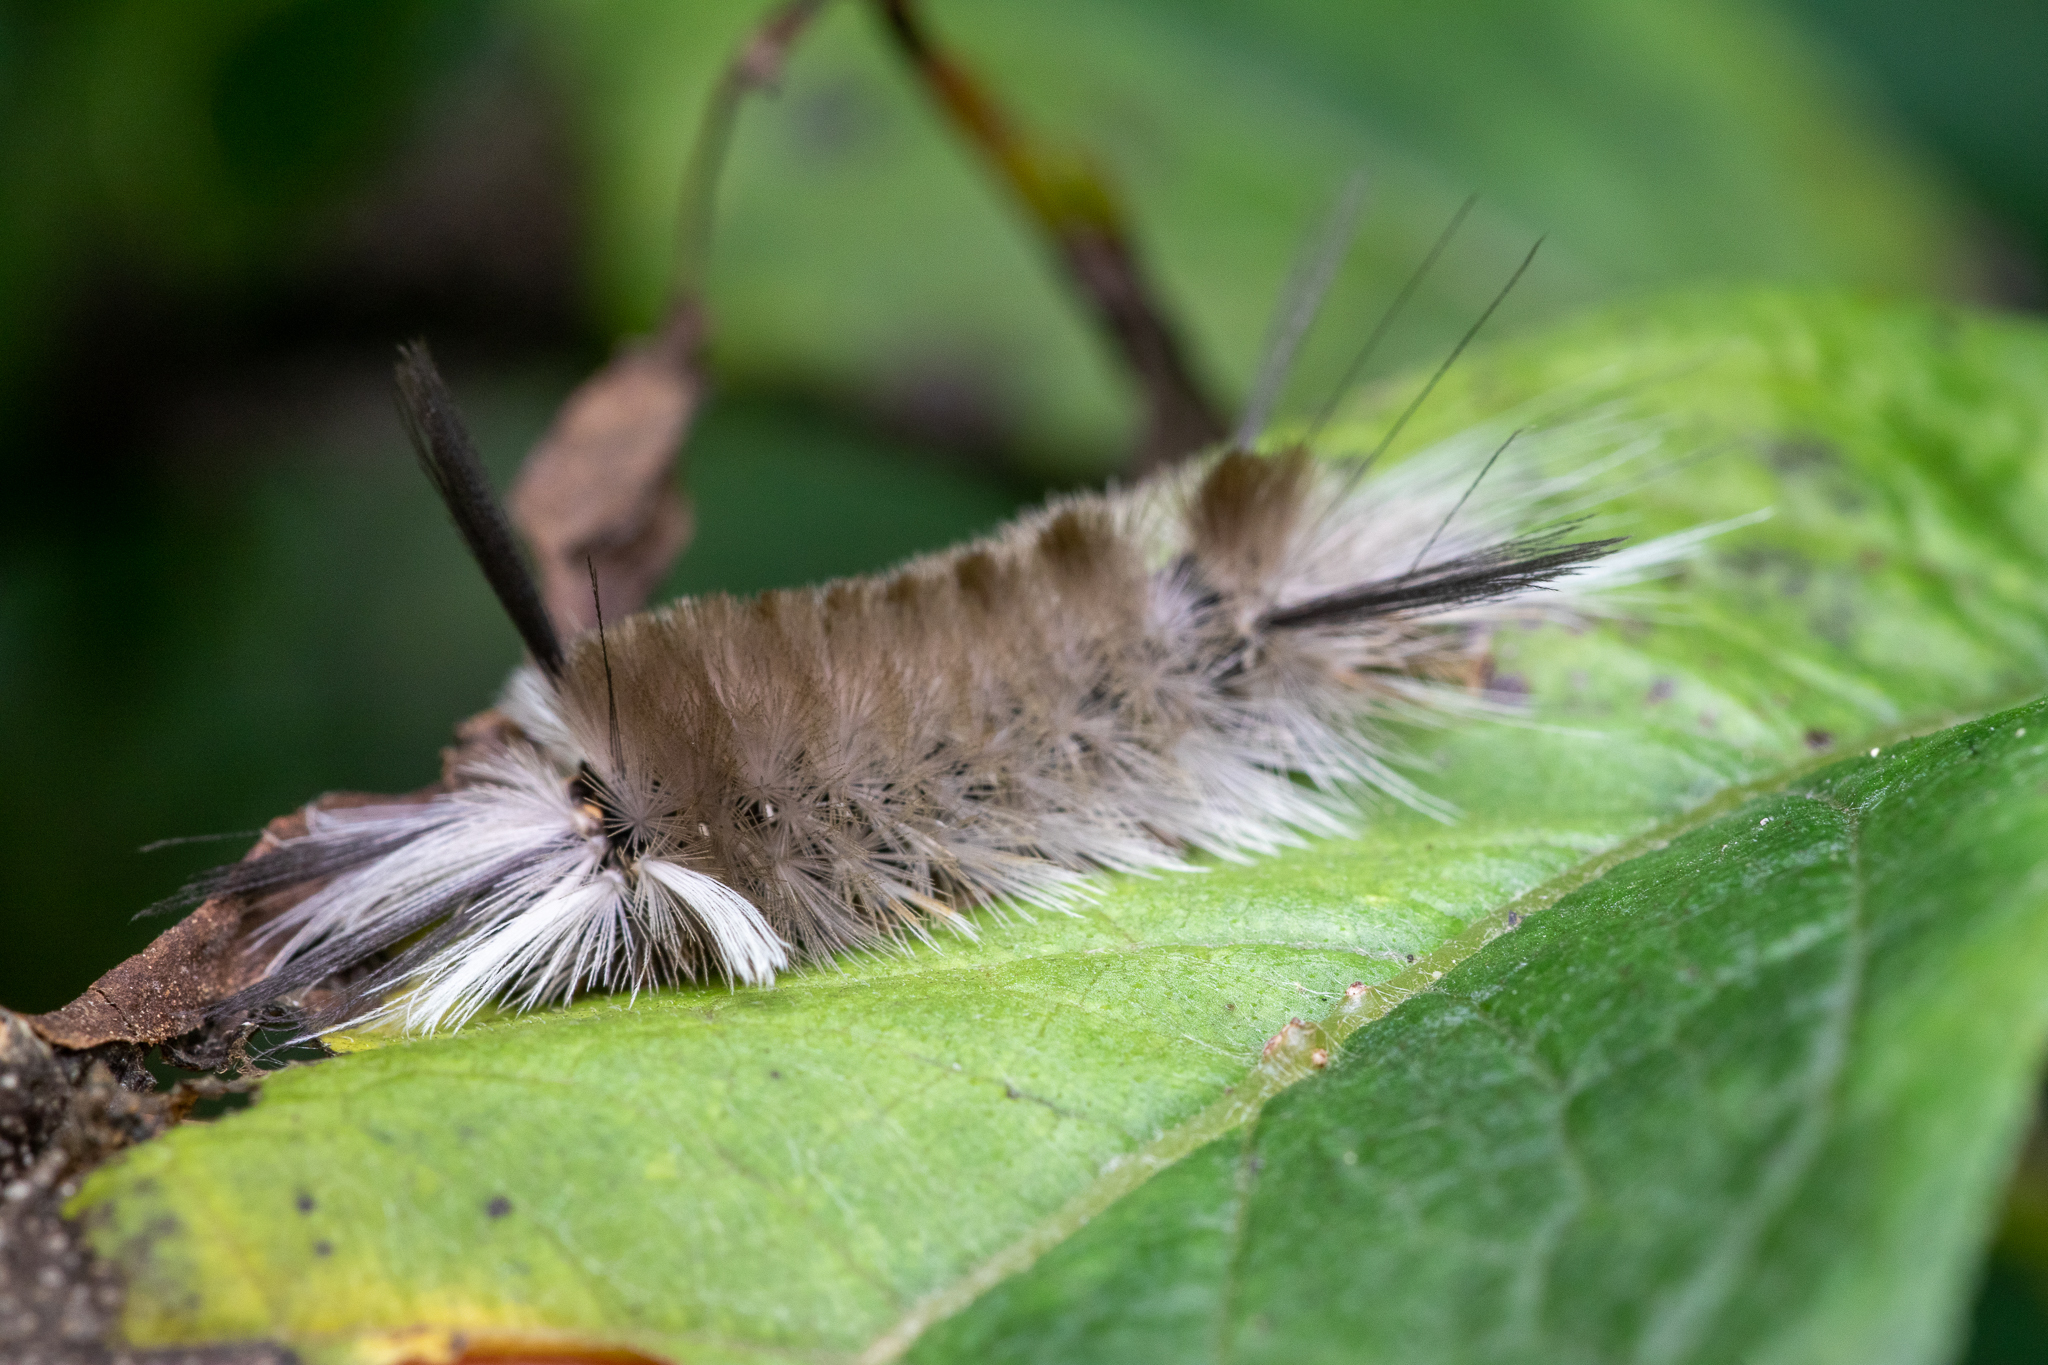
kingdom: Animalia
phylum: Arthropoda
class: Insecta
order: Lepidoptera
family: Erebidae
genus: Halysidota
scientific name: Halysidota tessellaris
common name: Banded tussock moth
